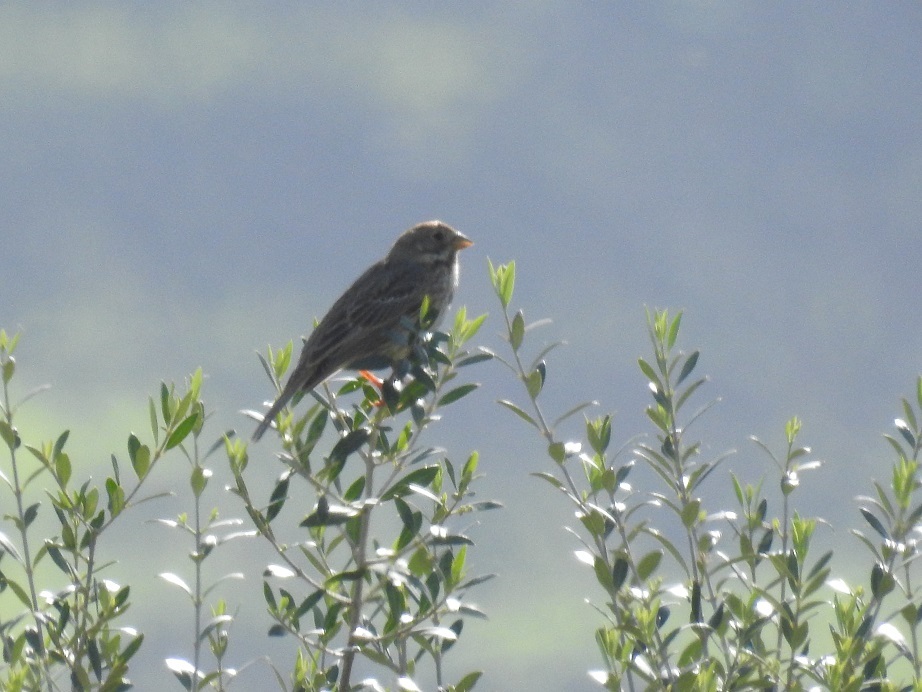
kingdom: Animalia
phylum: Chordata
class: Aves
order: Passeriformes
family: Emberizidae
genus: Emberiza
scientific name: Emberiza calandra
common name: Corn bunting
